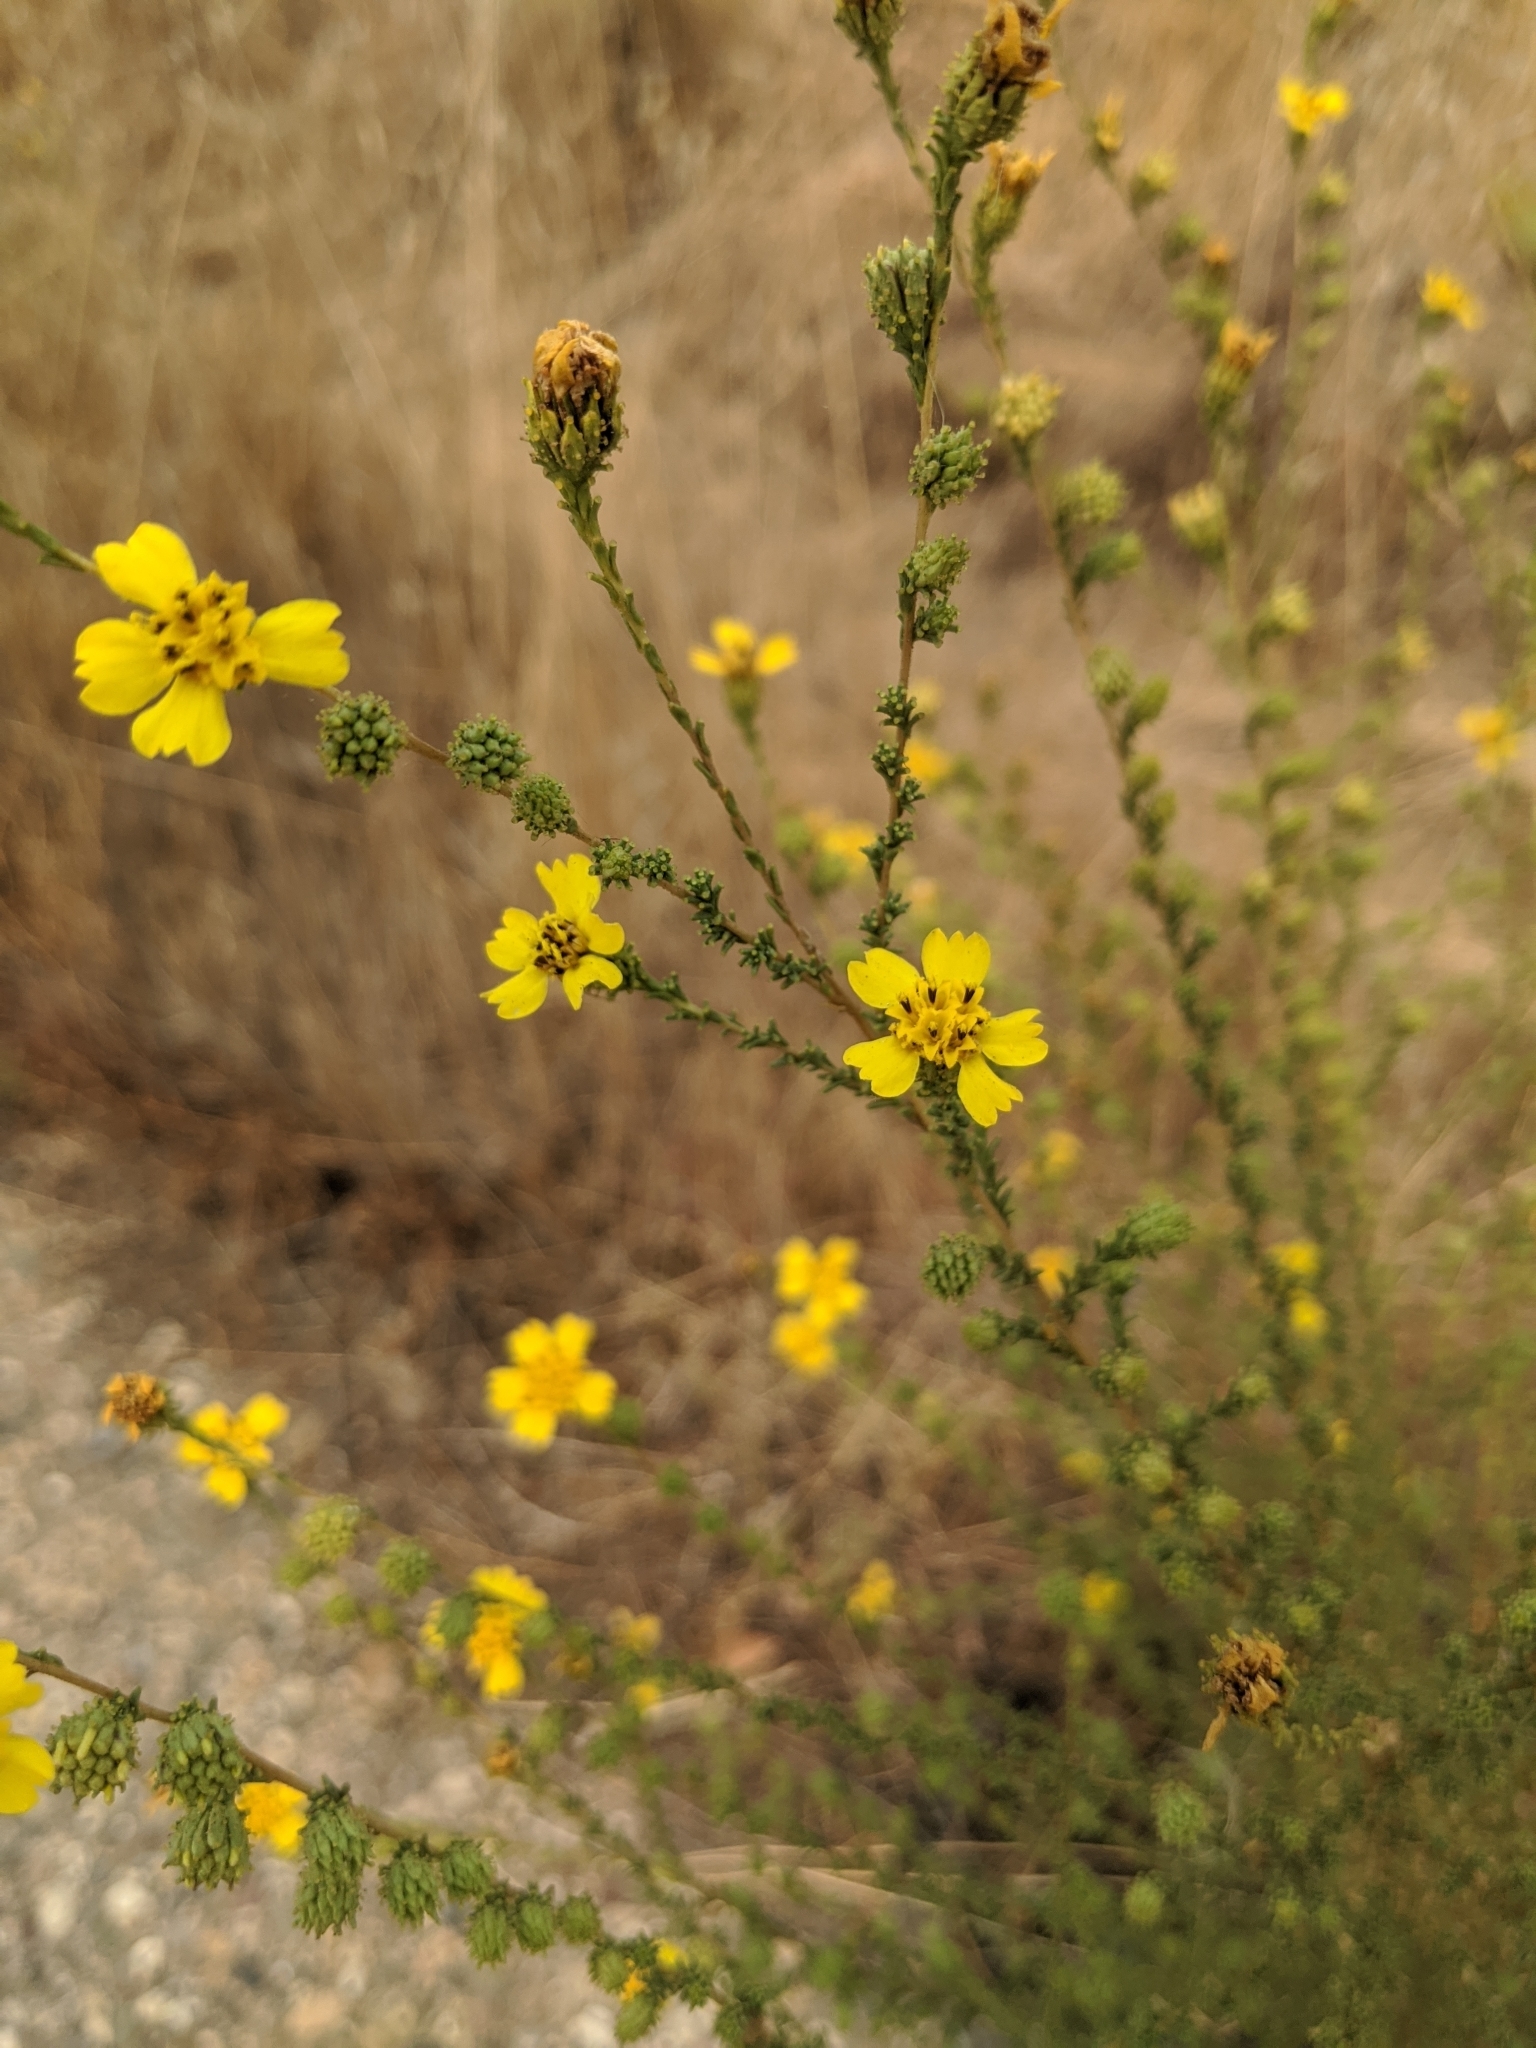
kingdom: Plantae
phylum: Tracheophyta
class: Magnoliopsida
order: Asterales
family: Asteraceae
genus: Holocarpha
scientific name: Holocarpha virgata
